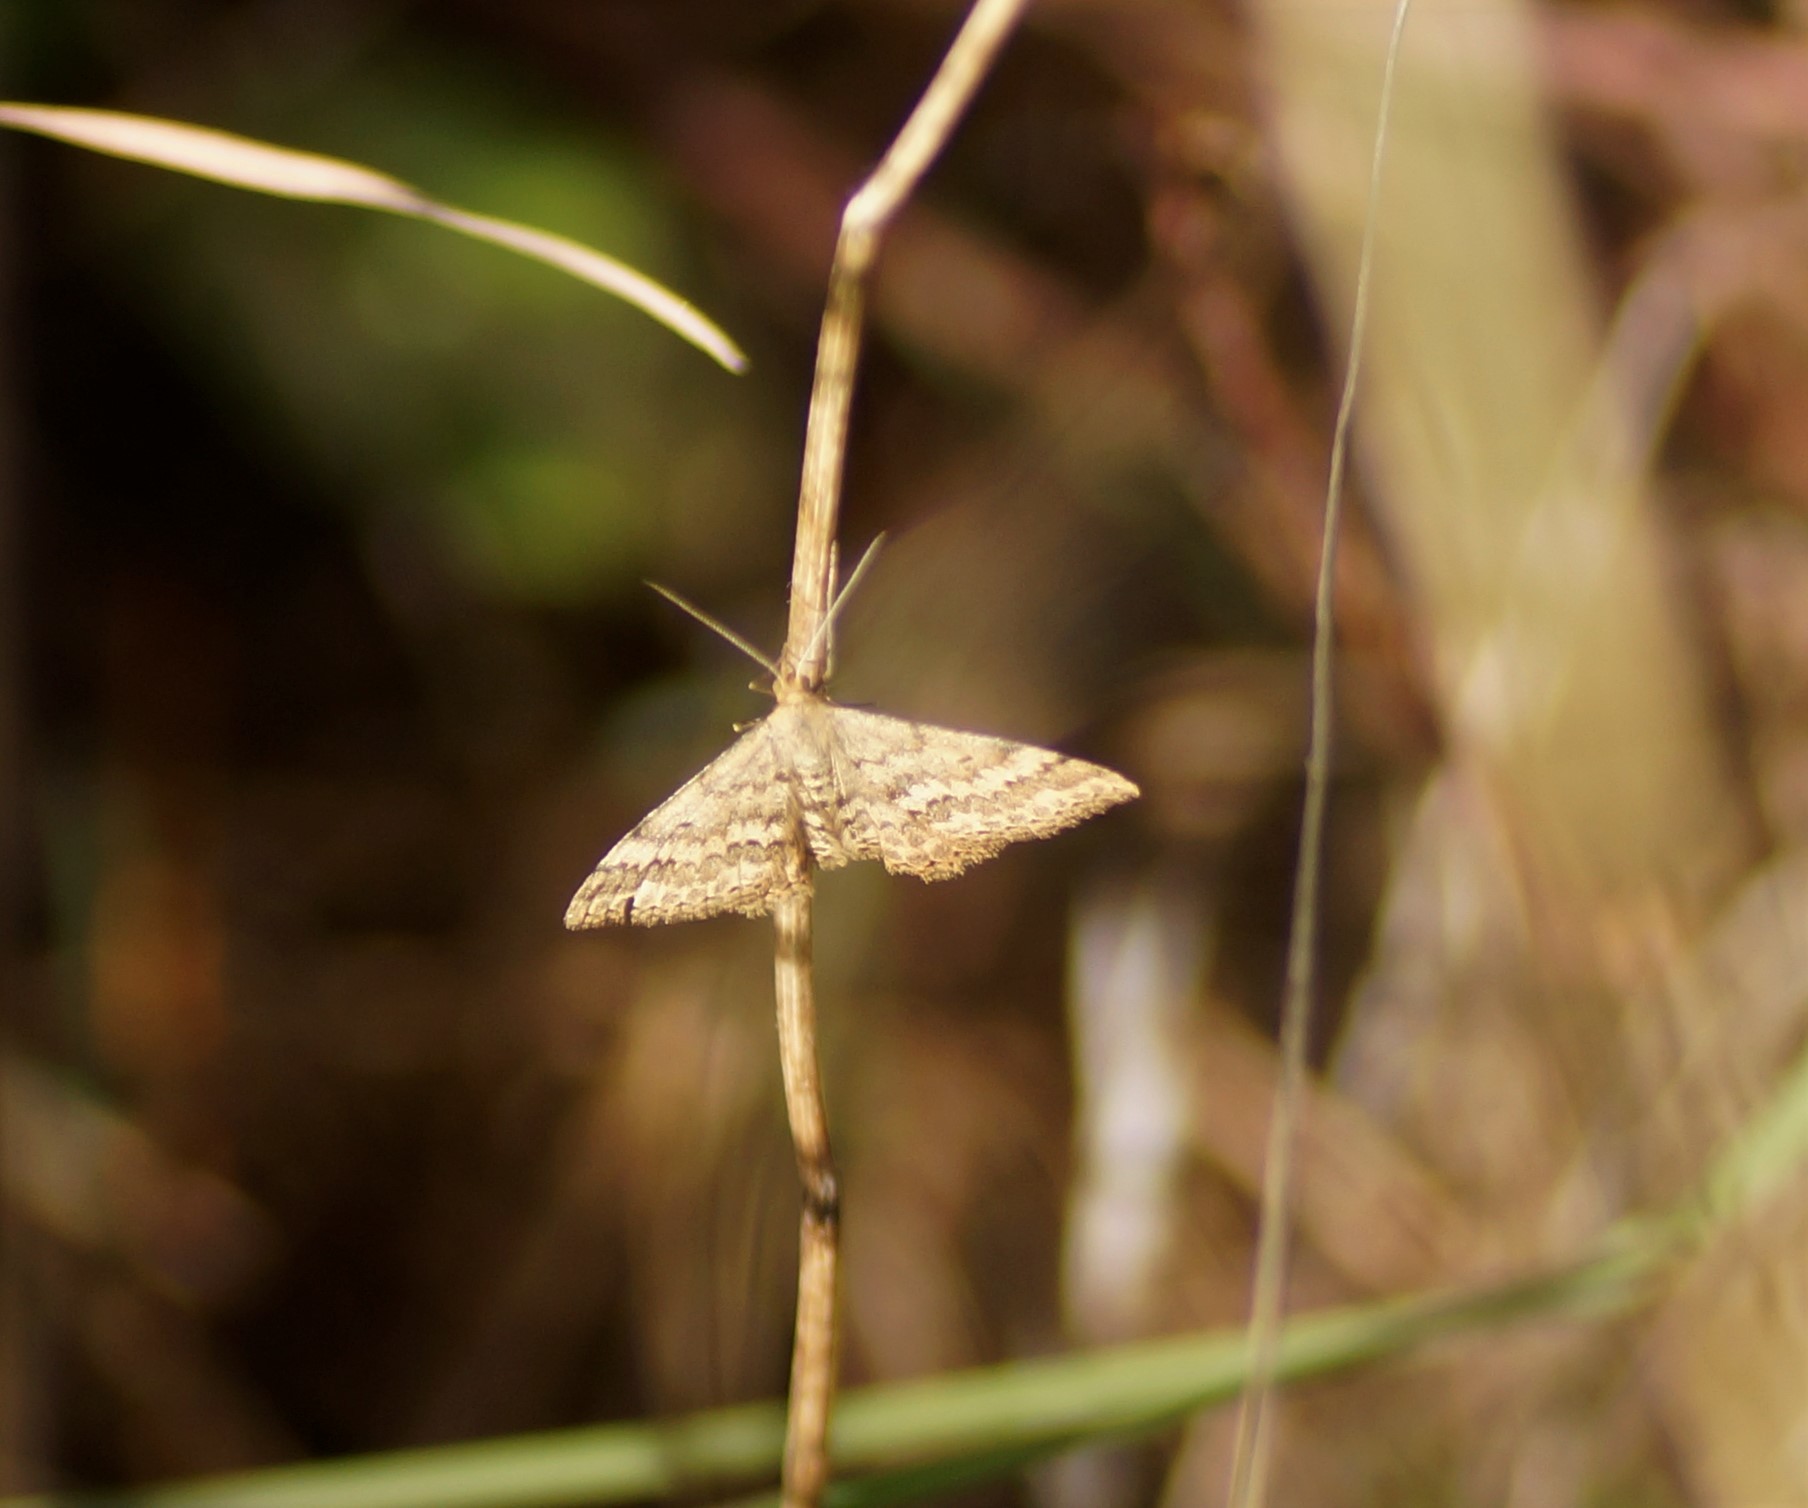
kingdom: Animalia
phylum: Arthropoda
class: Insecta
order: Lepidoptera
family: Geometridae
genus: Scopula
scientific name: Scopula rubraria
